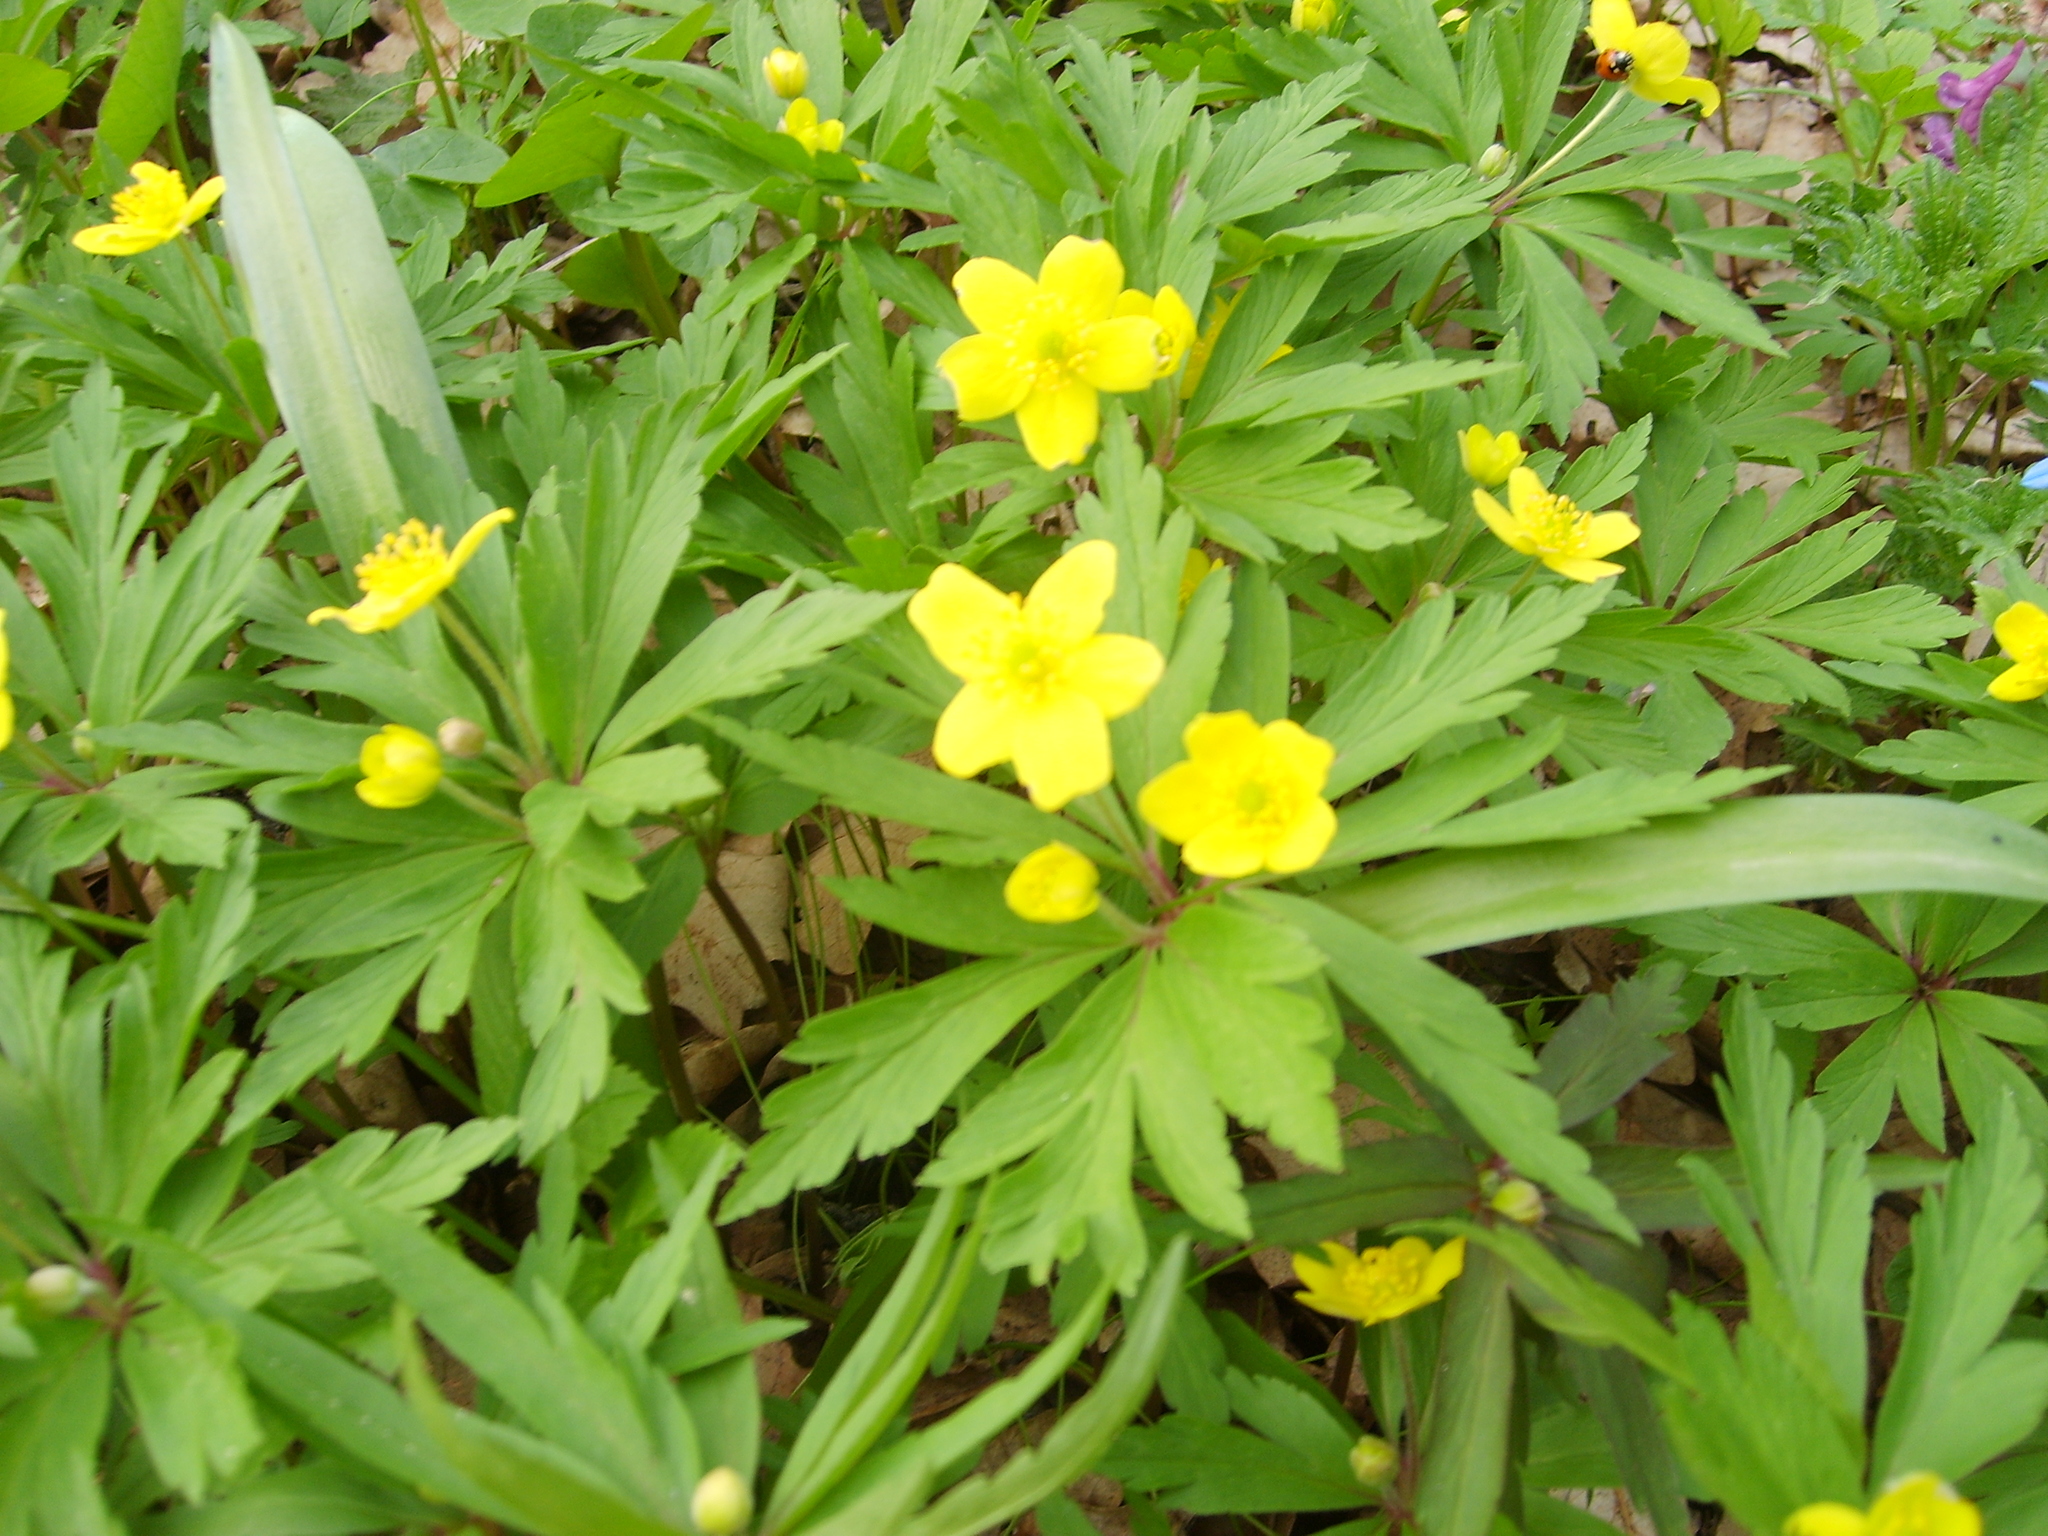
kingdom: Plantae
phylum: Tracheophyta
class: Magnoliopsida
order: Ranunculales
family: Ranunculaceae
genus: Anemone
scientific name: Anemone ranunculoides
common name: Yellow anemone
